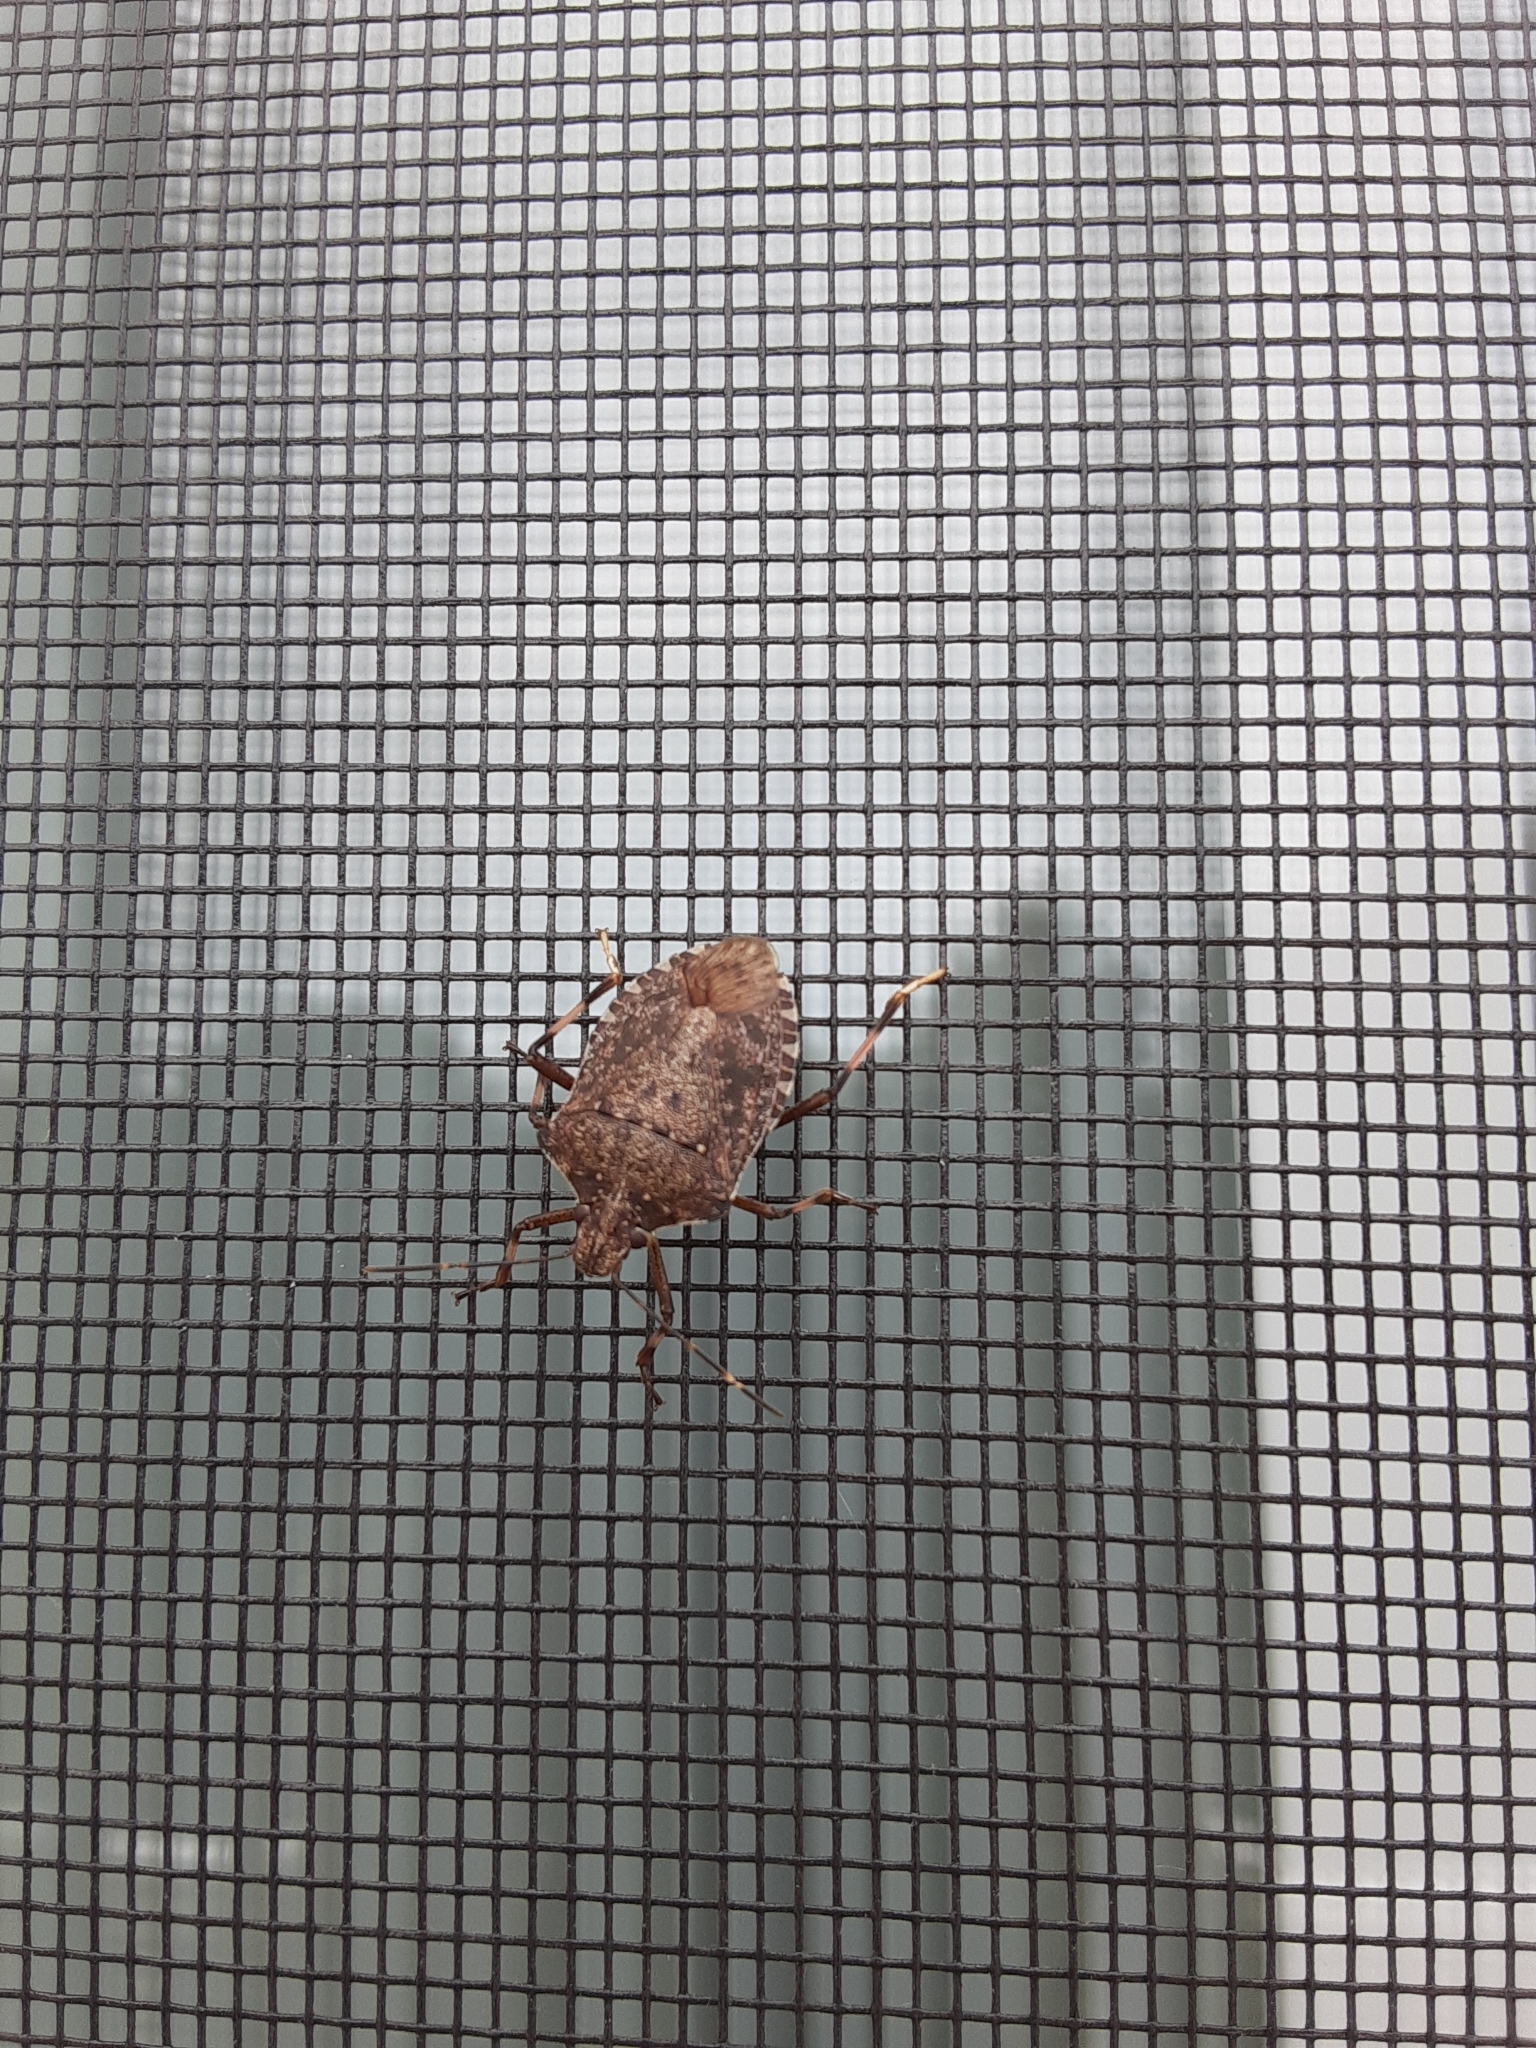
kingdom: Animalia
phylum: Arthropoda
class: Insecta
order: Hemiptera
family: Pentatomidae
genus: Halyomorpha
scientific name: Halyomorpha halys
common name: Brown marmorated stink bug
